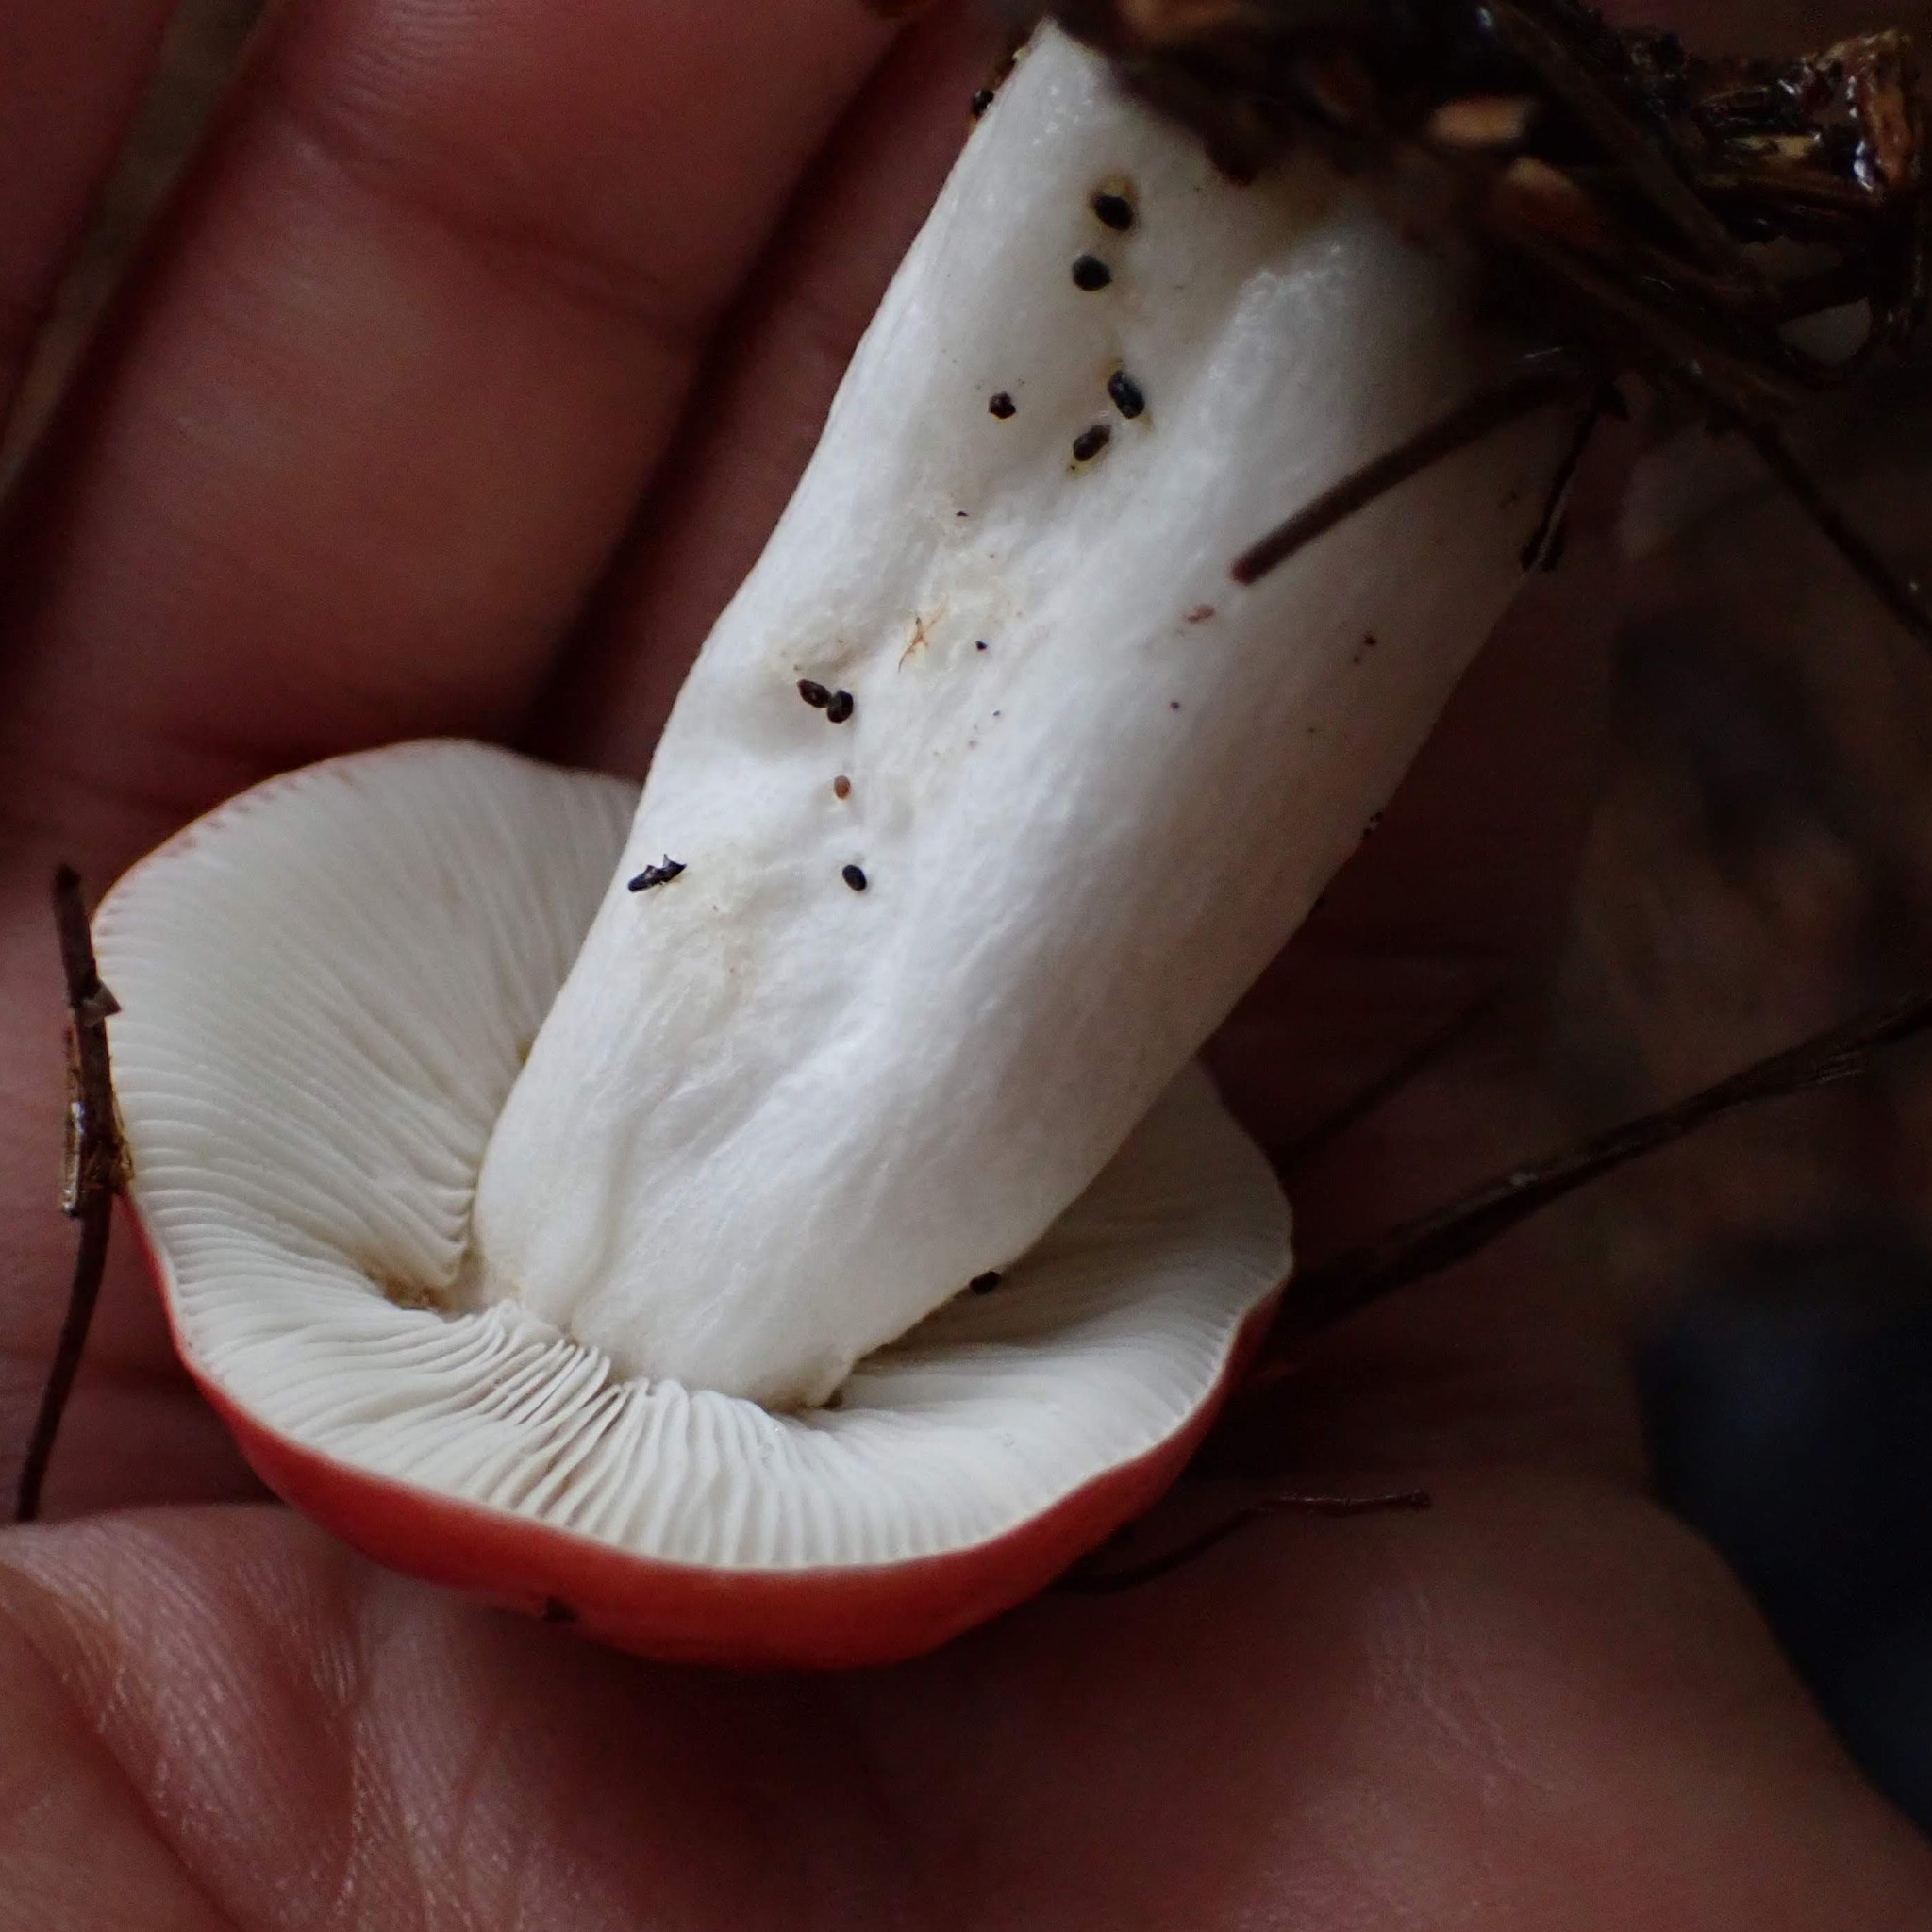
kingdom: Fungi
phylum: Basidiomycota
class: Agaricomycetes
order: Russulales
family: Russulaceae
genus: Russula
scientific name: Russula
